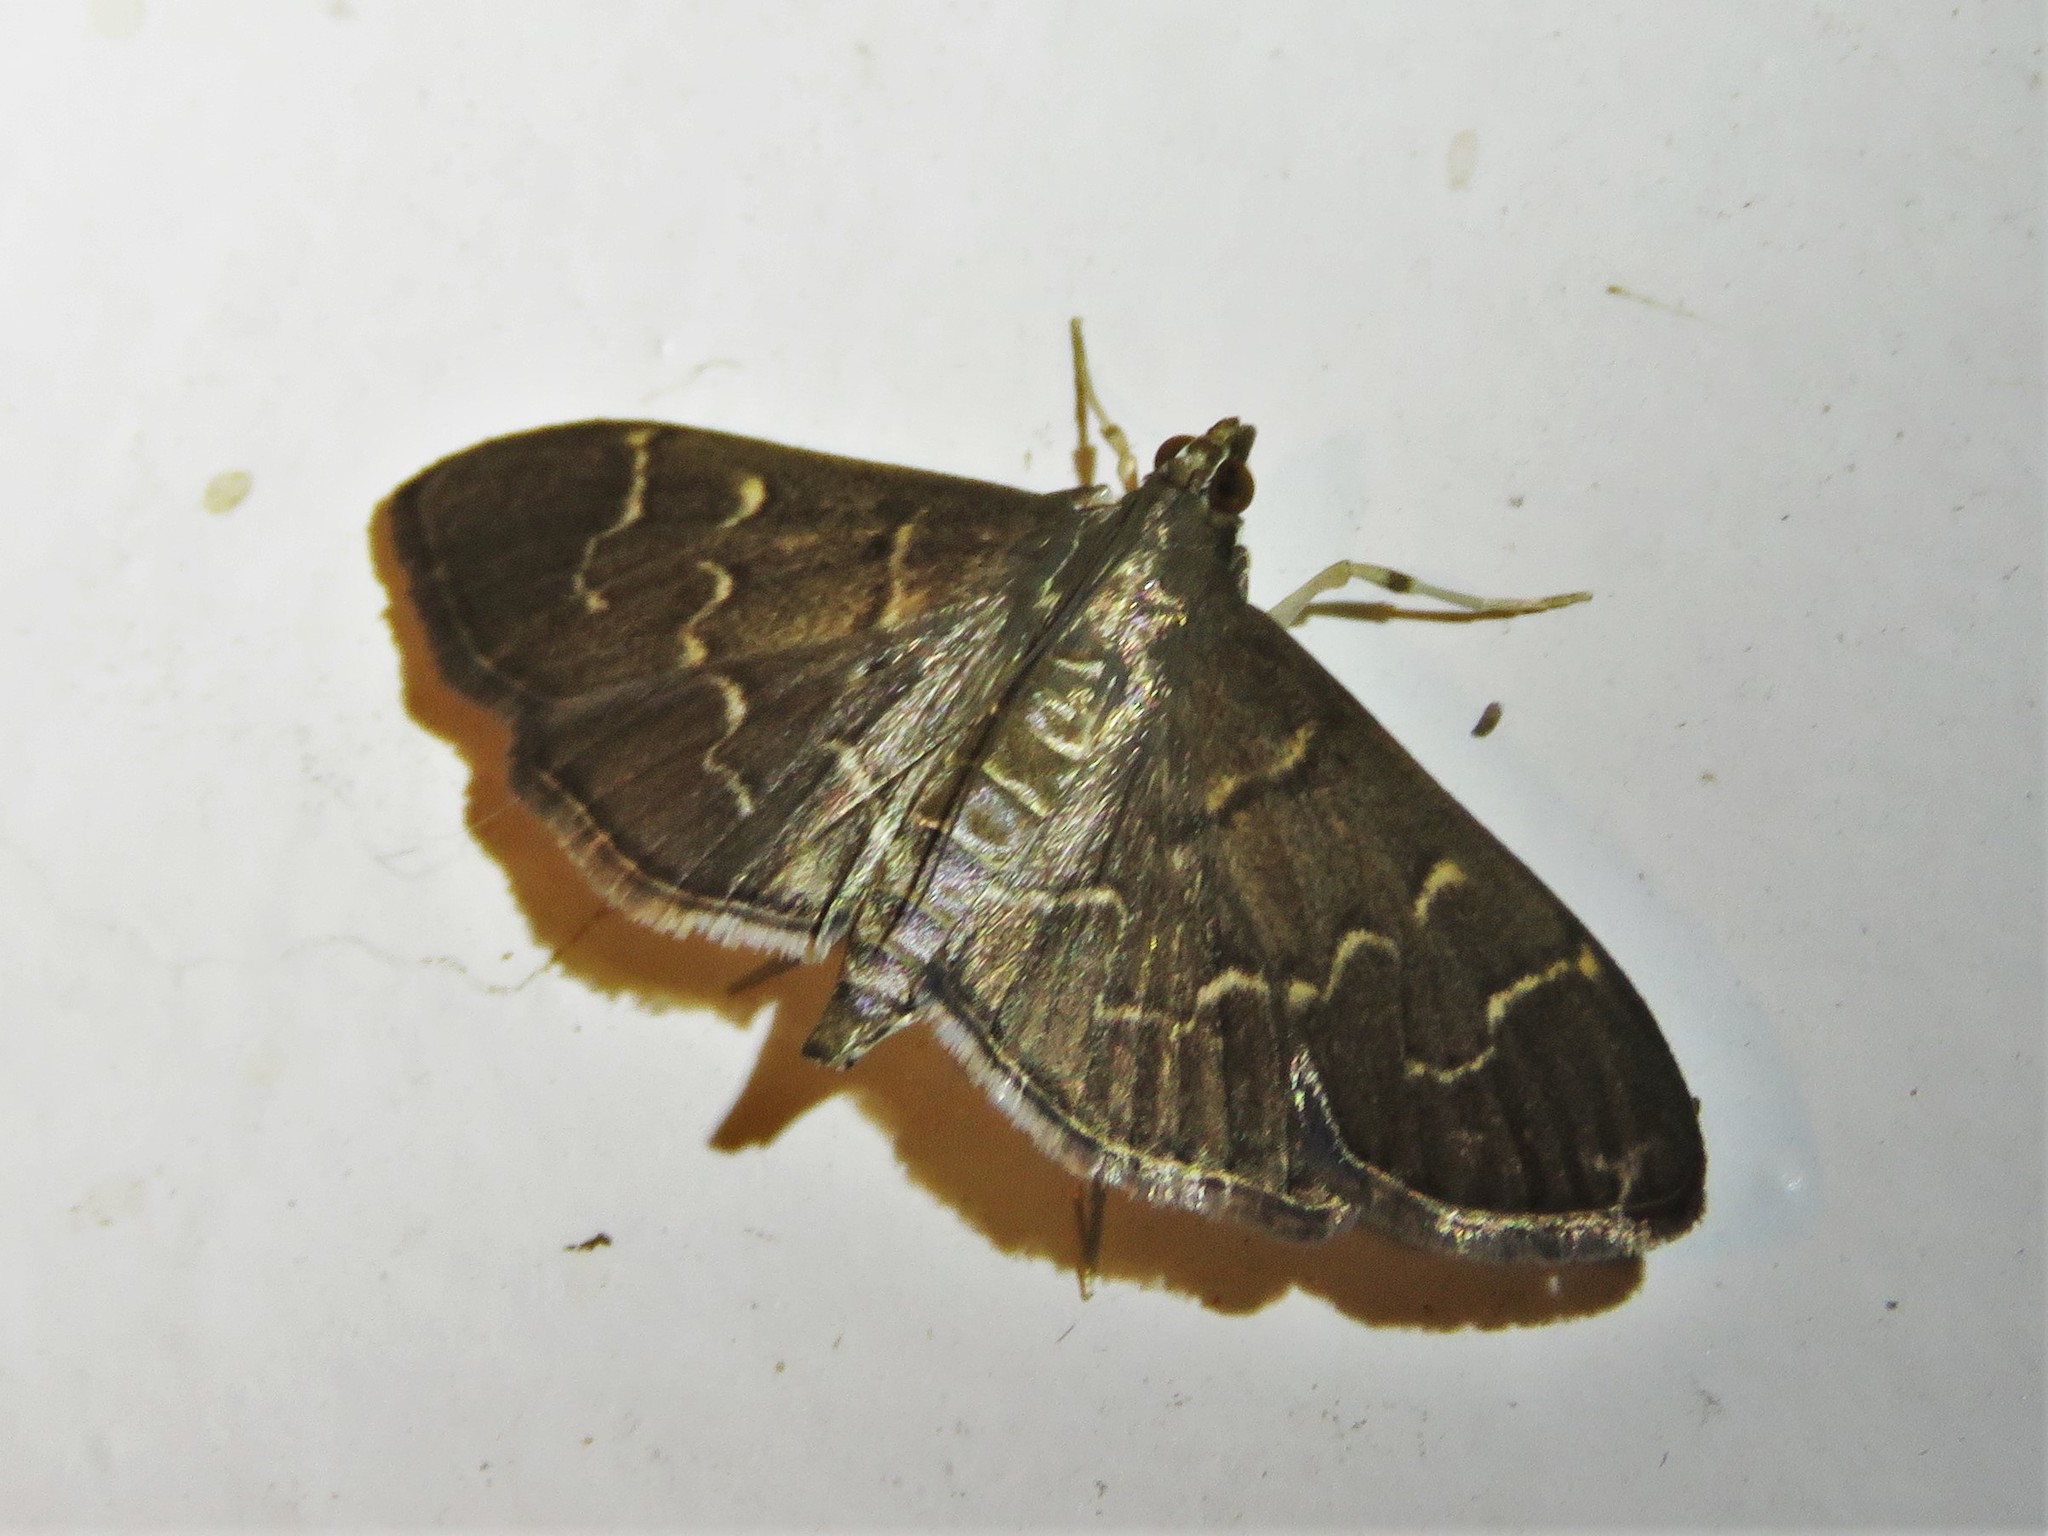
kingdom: Animalia
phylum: Arthropoda
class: Insecta
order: Lepidoptera
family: Crambidae
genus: Pilocrocis
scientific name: Pilocrocis ramentalis
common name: Scraped pilocrocis
